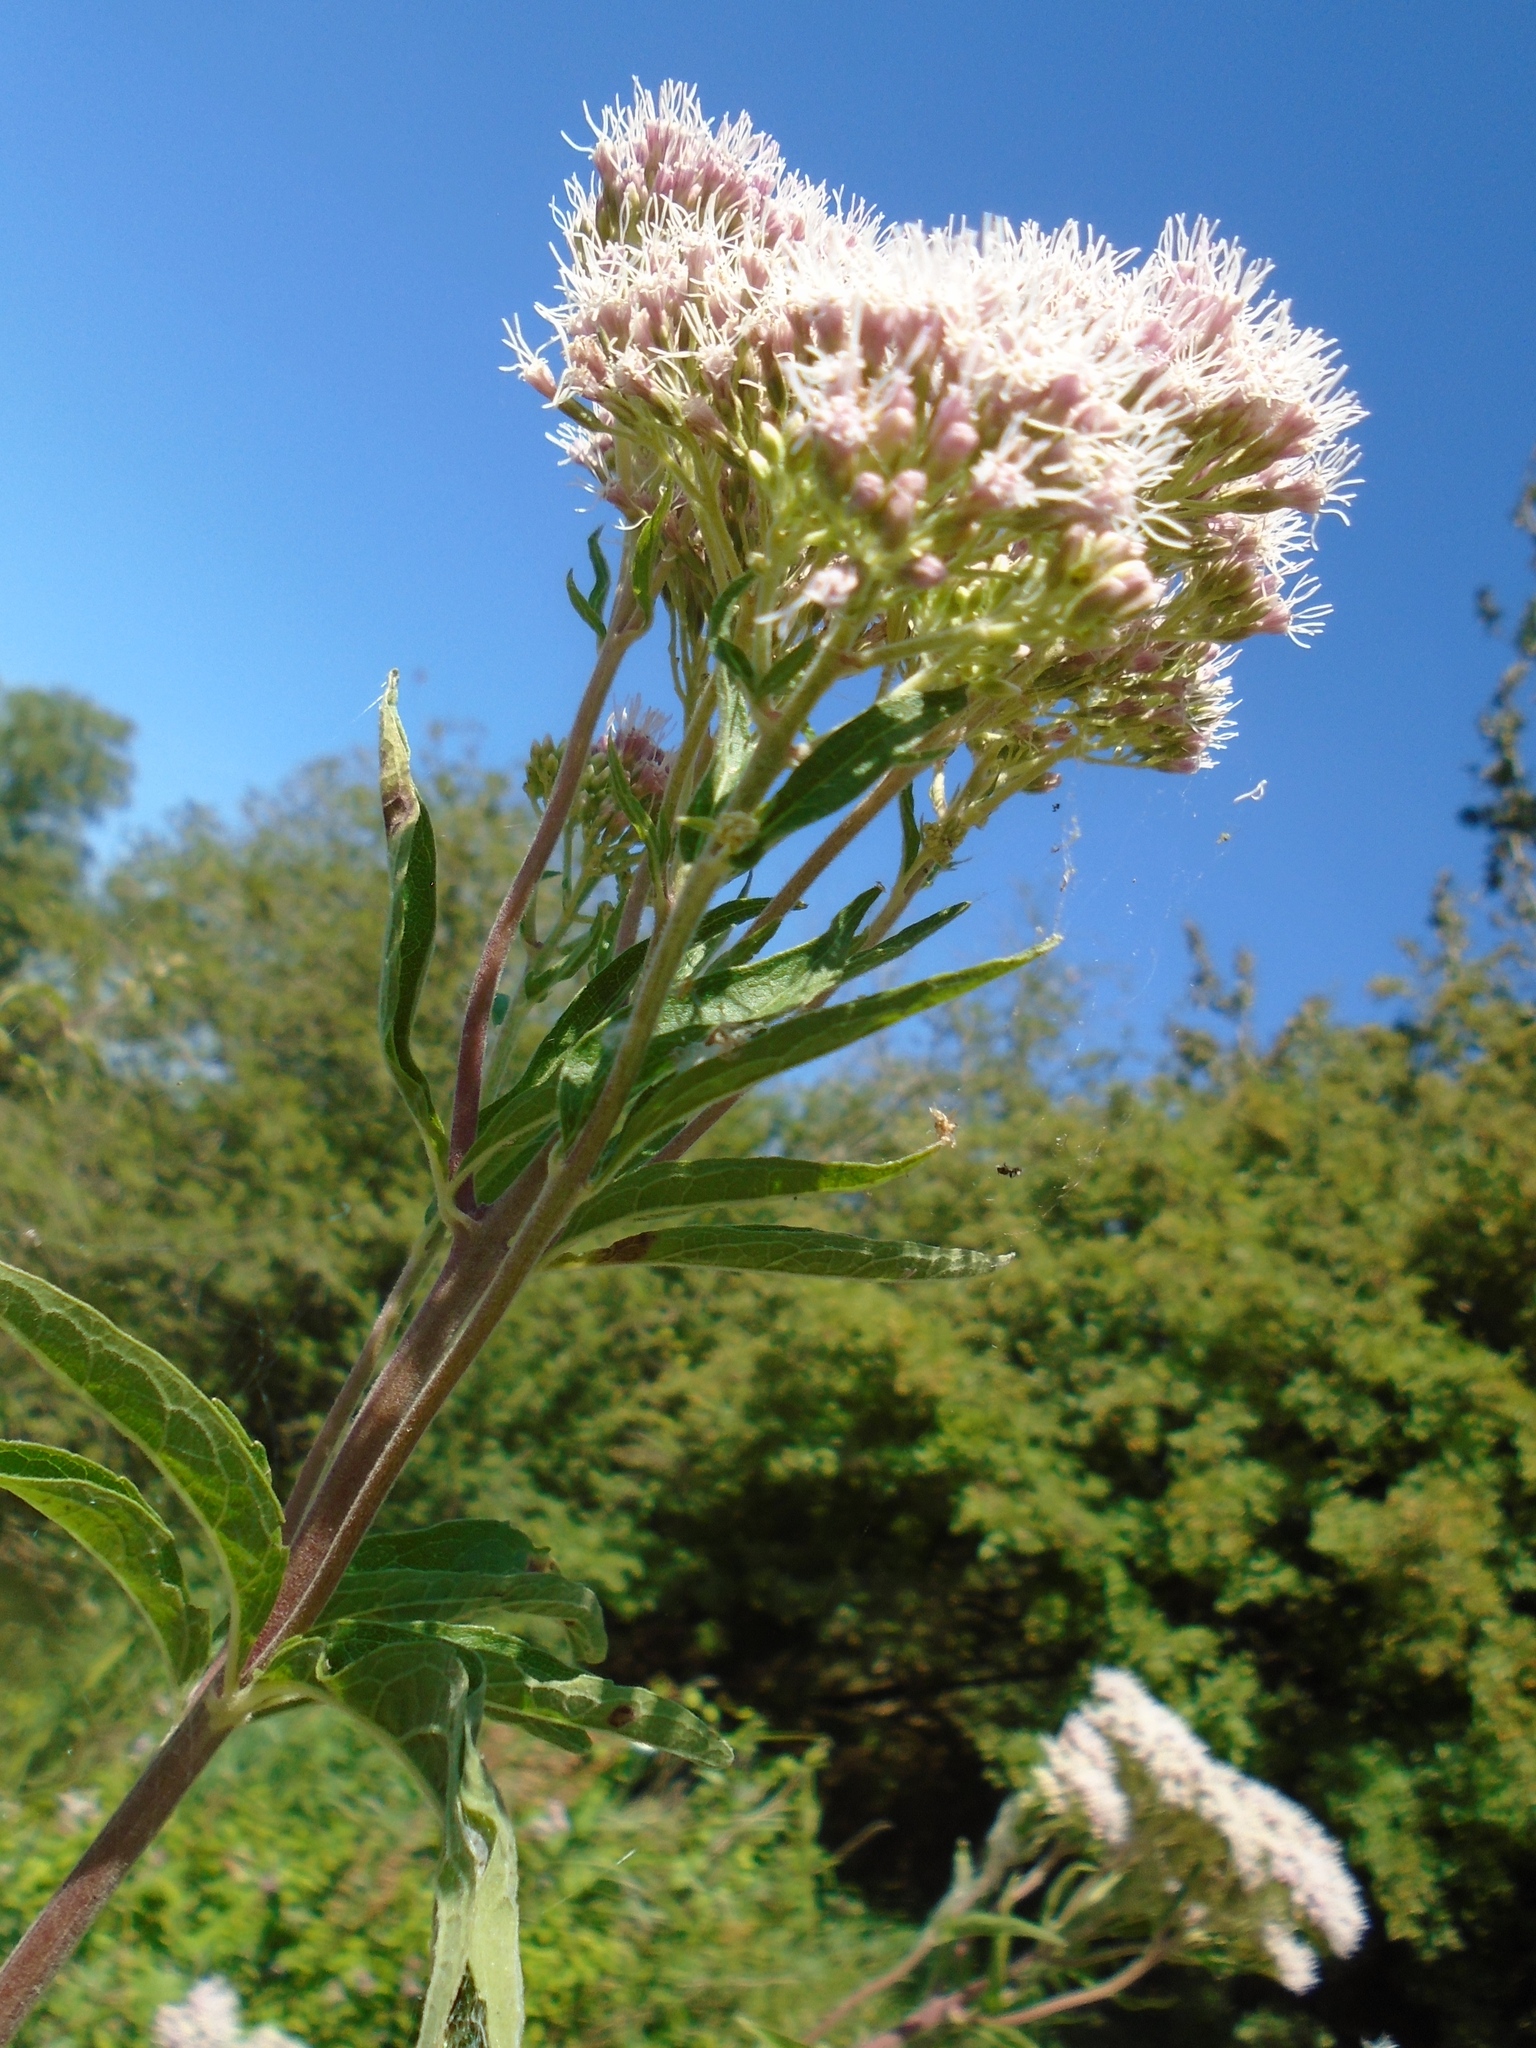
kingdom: Plantae
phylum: Tracheophyta
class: Magnoliopsida
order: Asterales
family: Asteraceae
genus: Eupatorium
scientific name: Eupatorium cannabinum
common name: Hemp-agrimony
